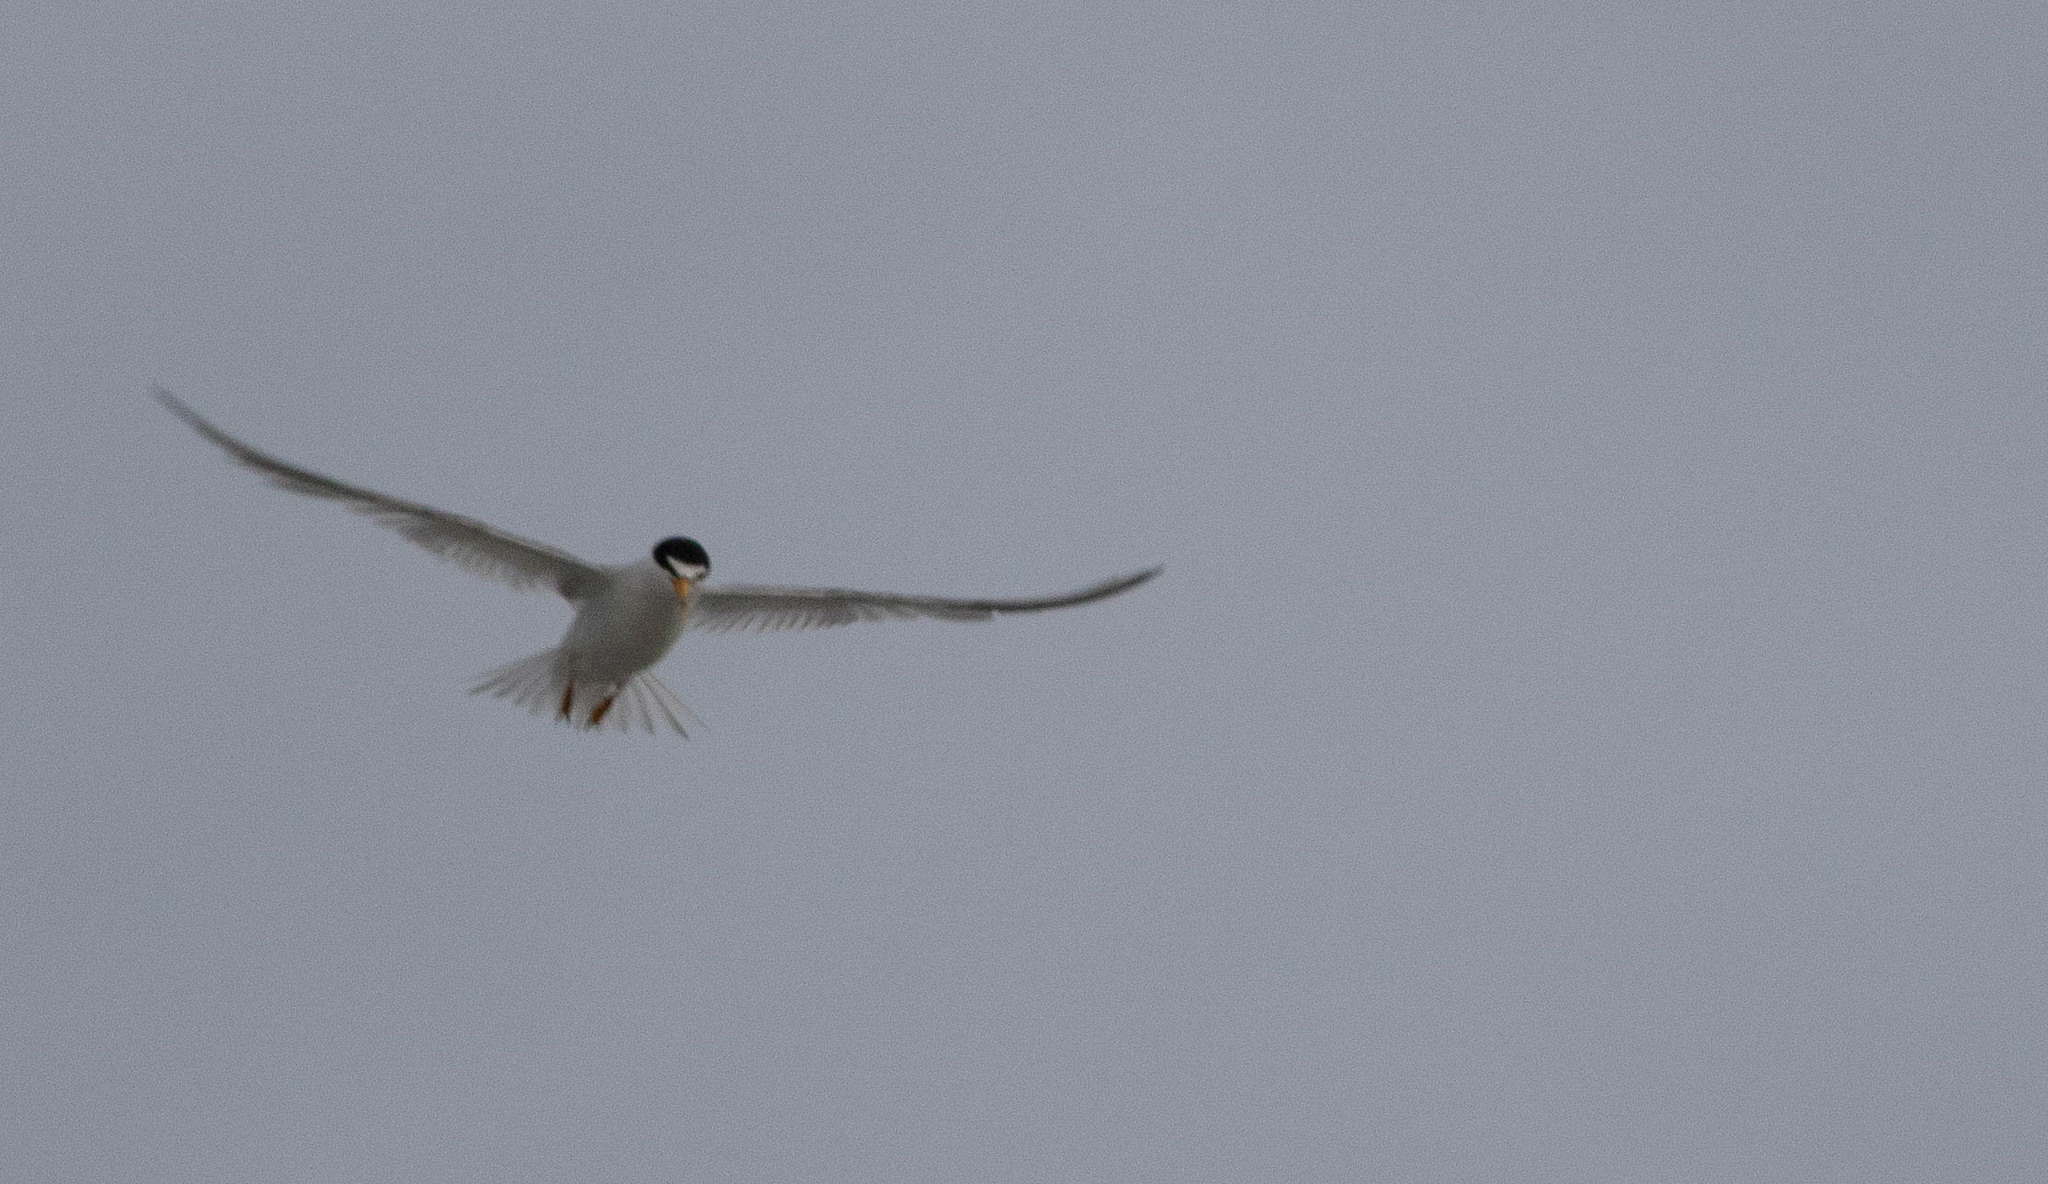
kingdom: Animalia
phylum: Chordata
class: Aves
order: Charadriiformes
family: Laridae
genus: Sternula
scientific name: Sternula antillarum
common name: Least tern
